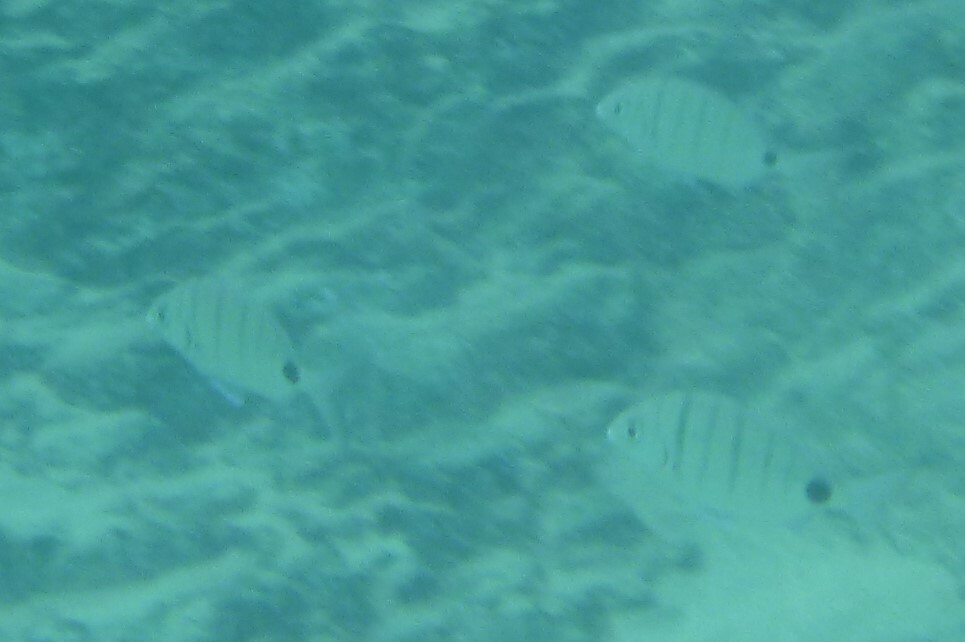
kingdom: Animalia
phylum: Chordata
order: Perciformes
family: Sparidae
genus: Diplodus
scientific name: Diplodus cadenati
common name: Moroccan white seabream
